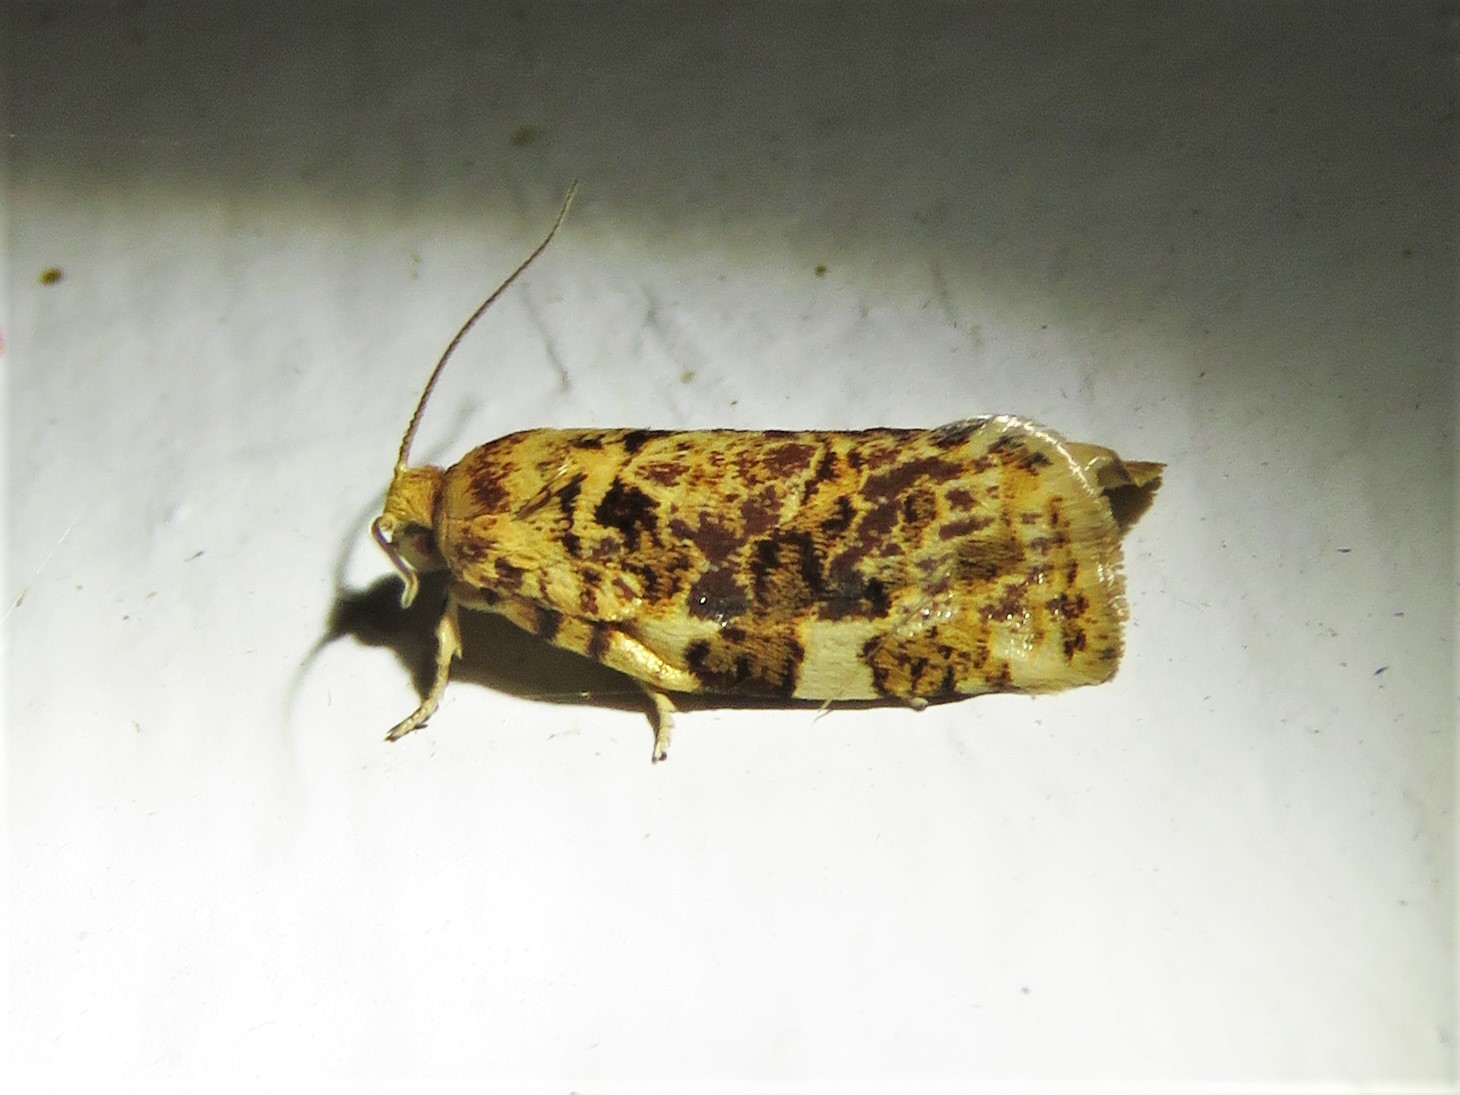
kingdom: Animalia
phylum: Arthropoda
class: Insecta
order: Lepidoptera
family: Tortricidae
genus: Archips
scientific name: Archips argyrospila
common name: Fruit-tree leafroller moth
